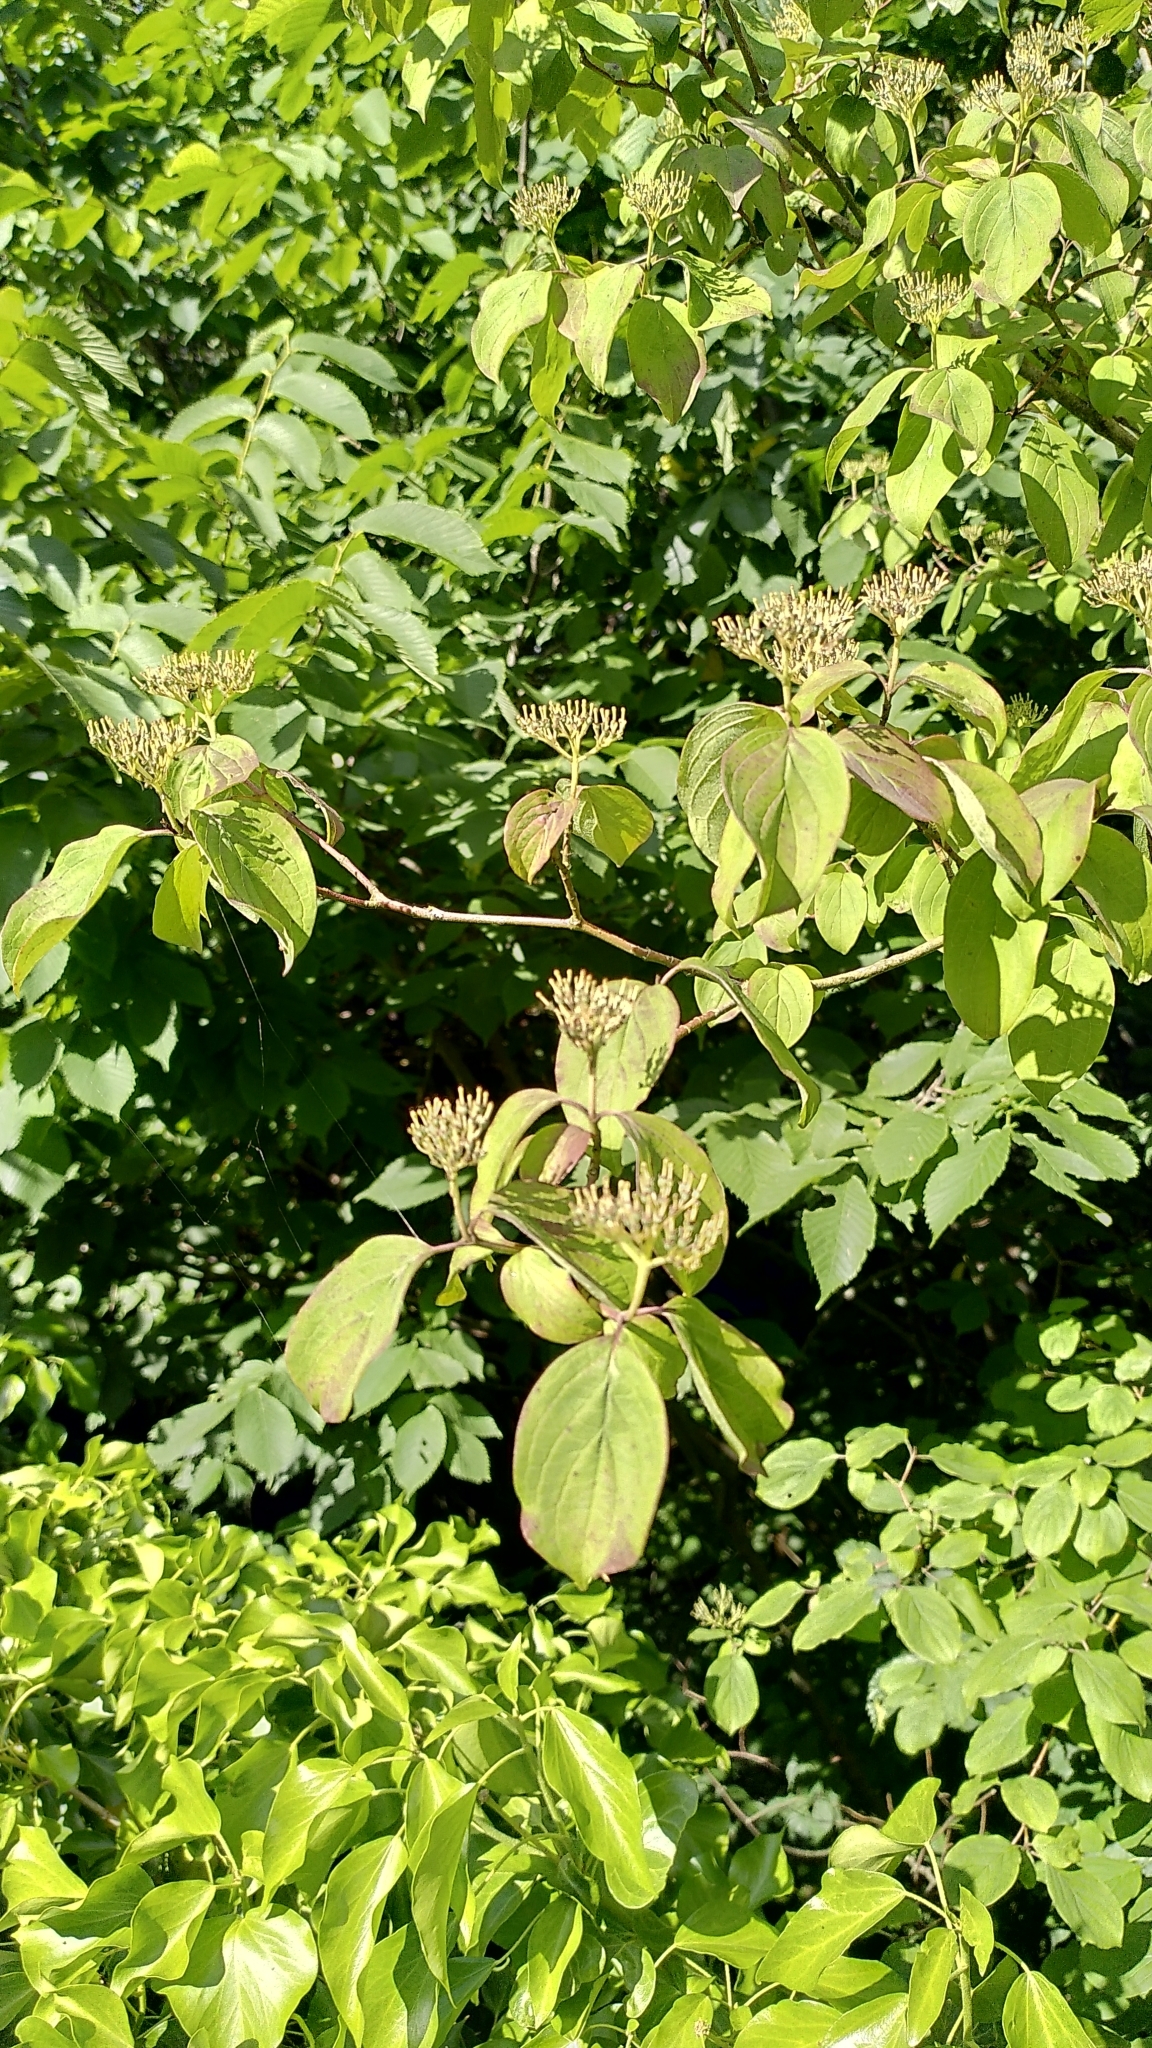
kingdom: Plantae
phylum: Tracheophyta
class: Magnoliopsida
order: Cornales
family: Cornaceae
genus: Cornus
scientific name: Cornus sanguinea
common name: Dogwood
